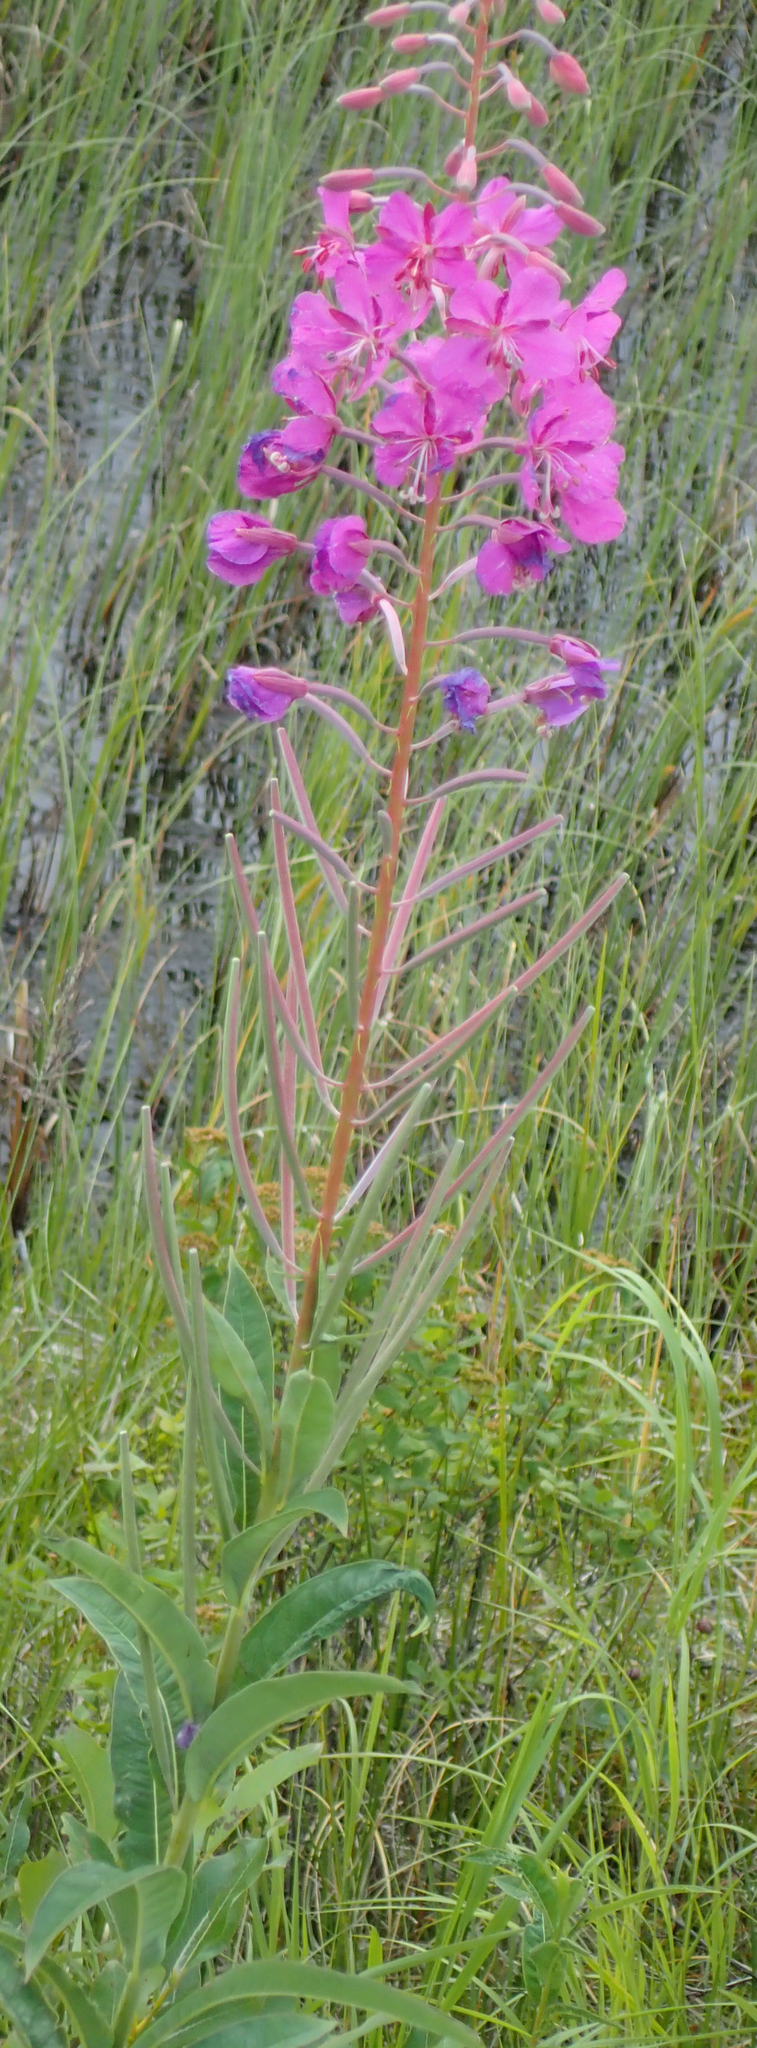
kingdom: Plantae
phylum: Tracheophyta
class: Magnoliopsida
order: Myrtales
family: Onagraceae
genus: Chamaenerion
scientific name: Chamaenerion angustifolium
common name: Fireweed
